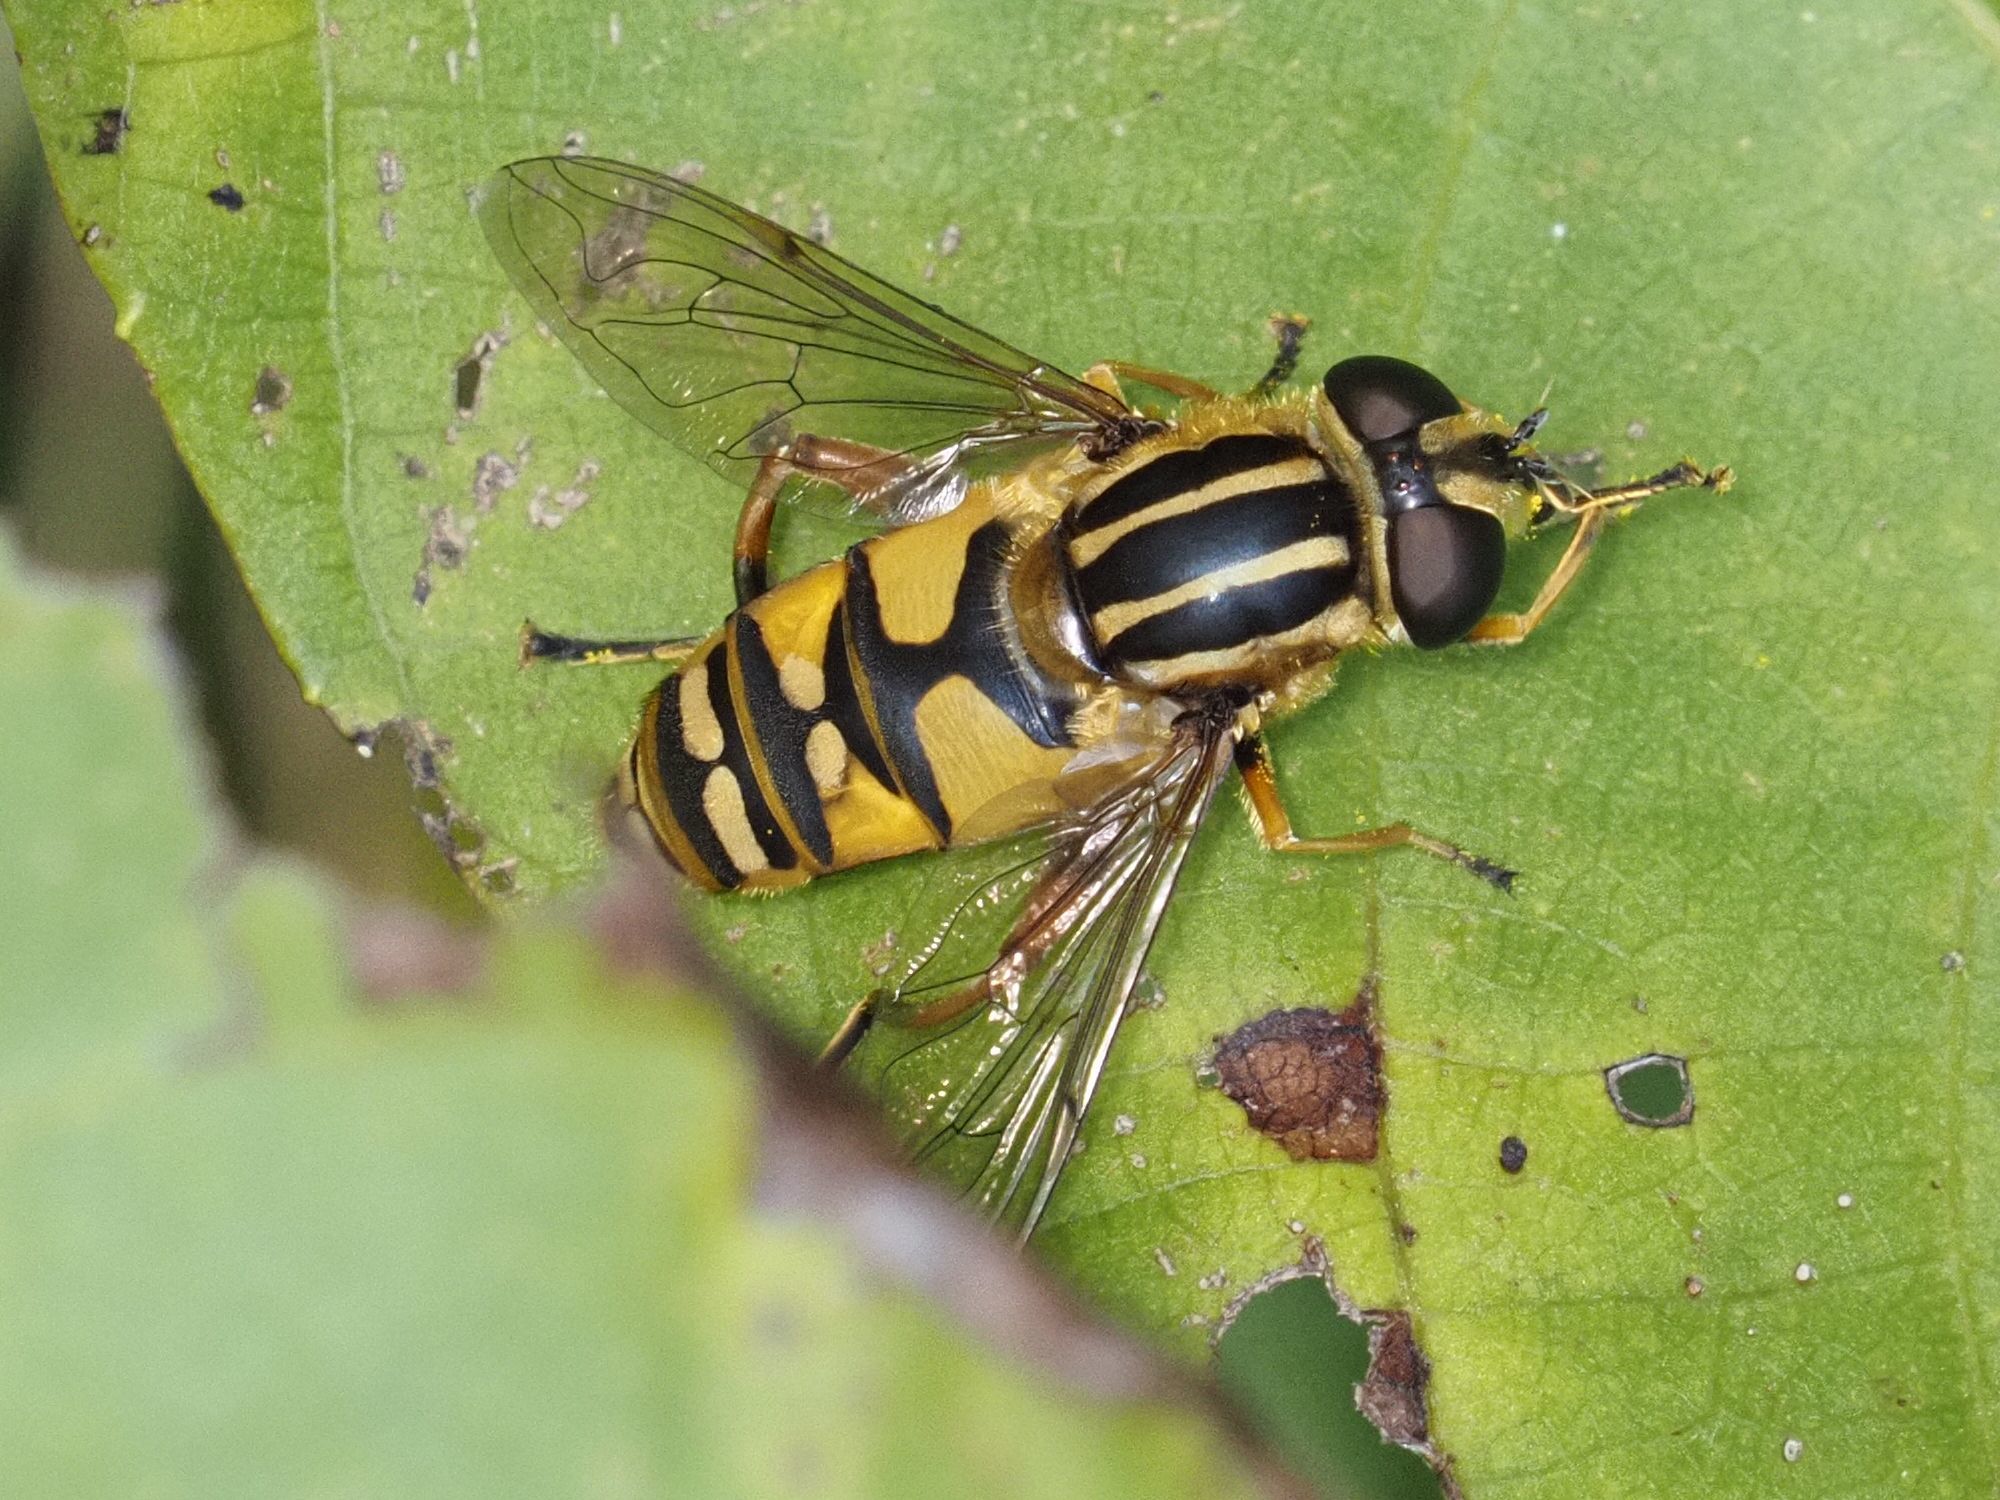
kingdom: Animalia
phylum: Arthropoda
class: Insecta
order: Diptera
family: Syrphidae
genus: Helophilus
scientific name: Helophilus pendulus
